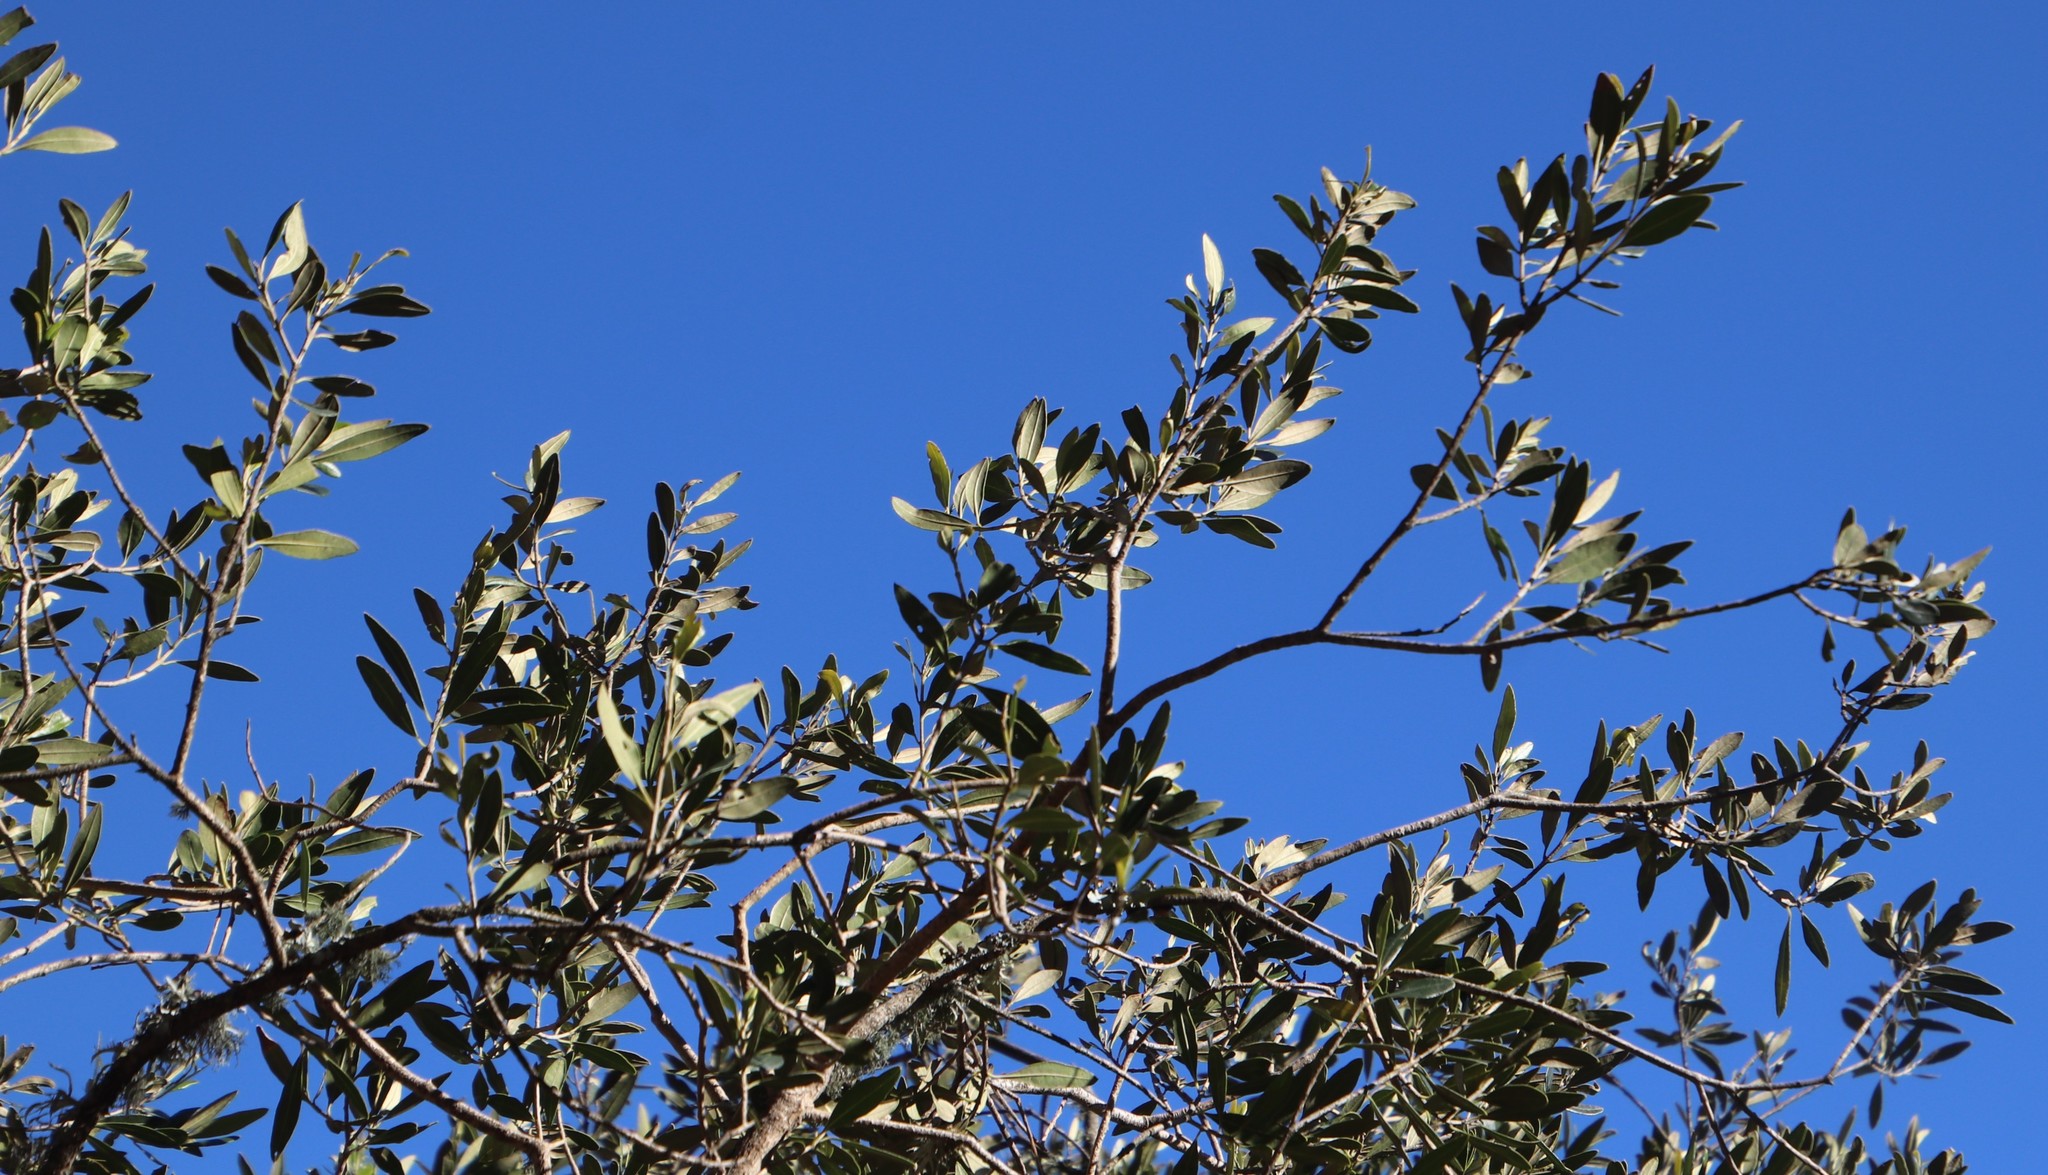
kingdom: Plantae
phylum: Tracheophyta
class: Magnoliopsida
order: Lamiales
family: Oleaceae
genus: Olea
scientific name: Olea europaea
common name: Olive
